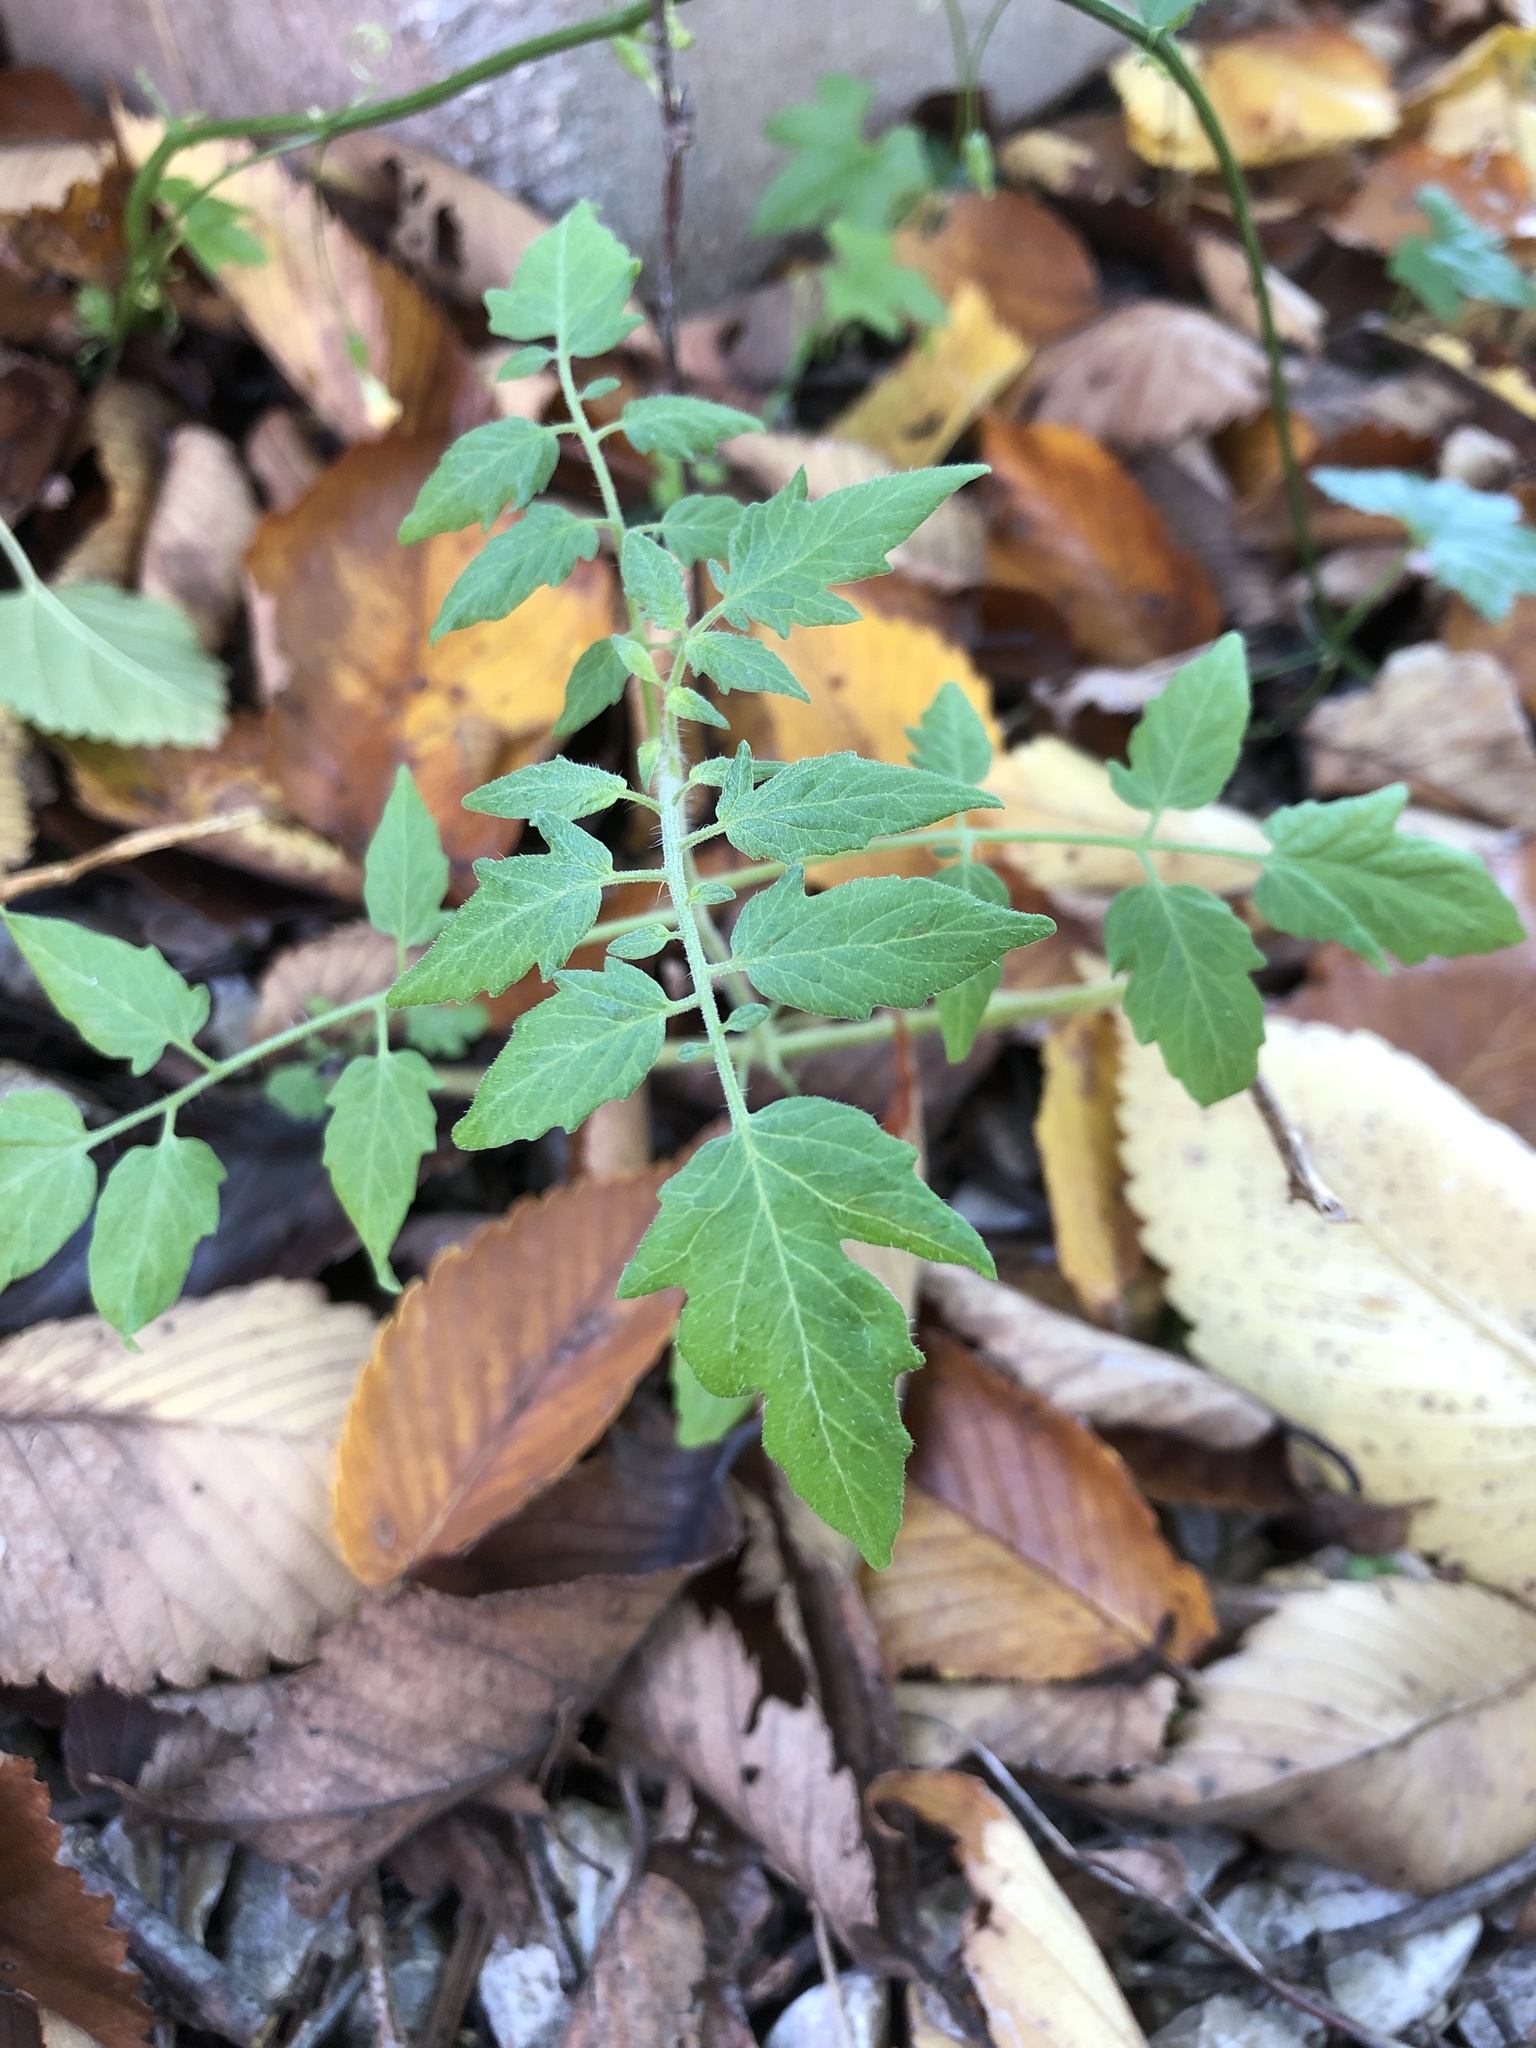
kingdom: Plantae
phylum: Tracheophyta
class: Magnoliopsida
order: Solanales
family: Solanaceae
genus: Solanum
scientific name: Solanum lycopersicum
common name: Garden tomato
